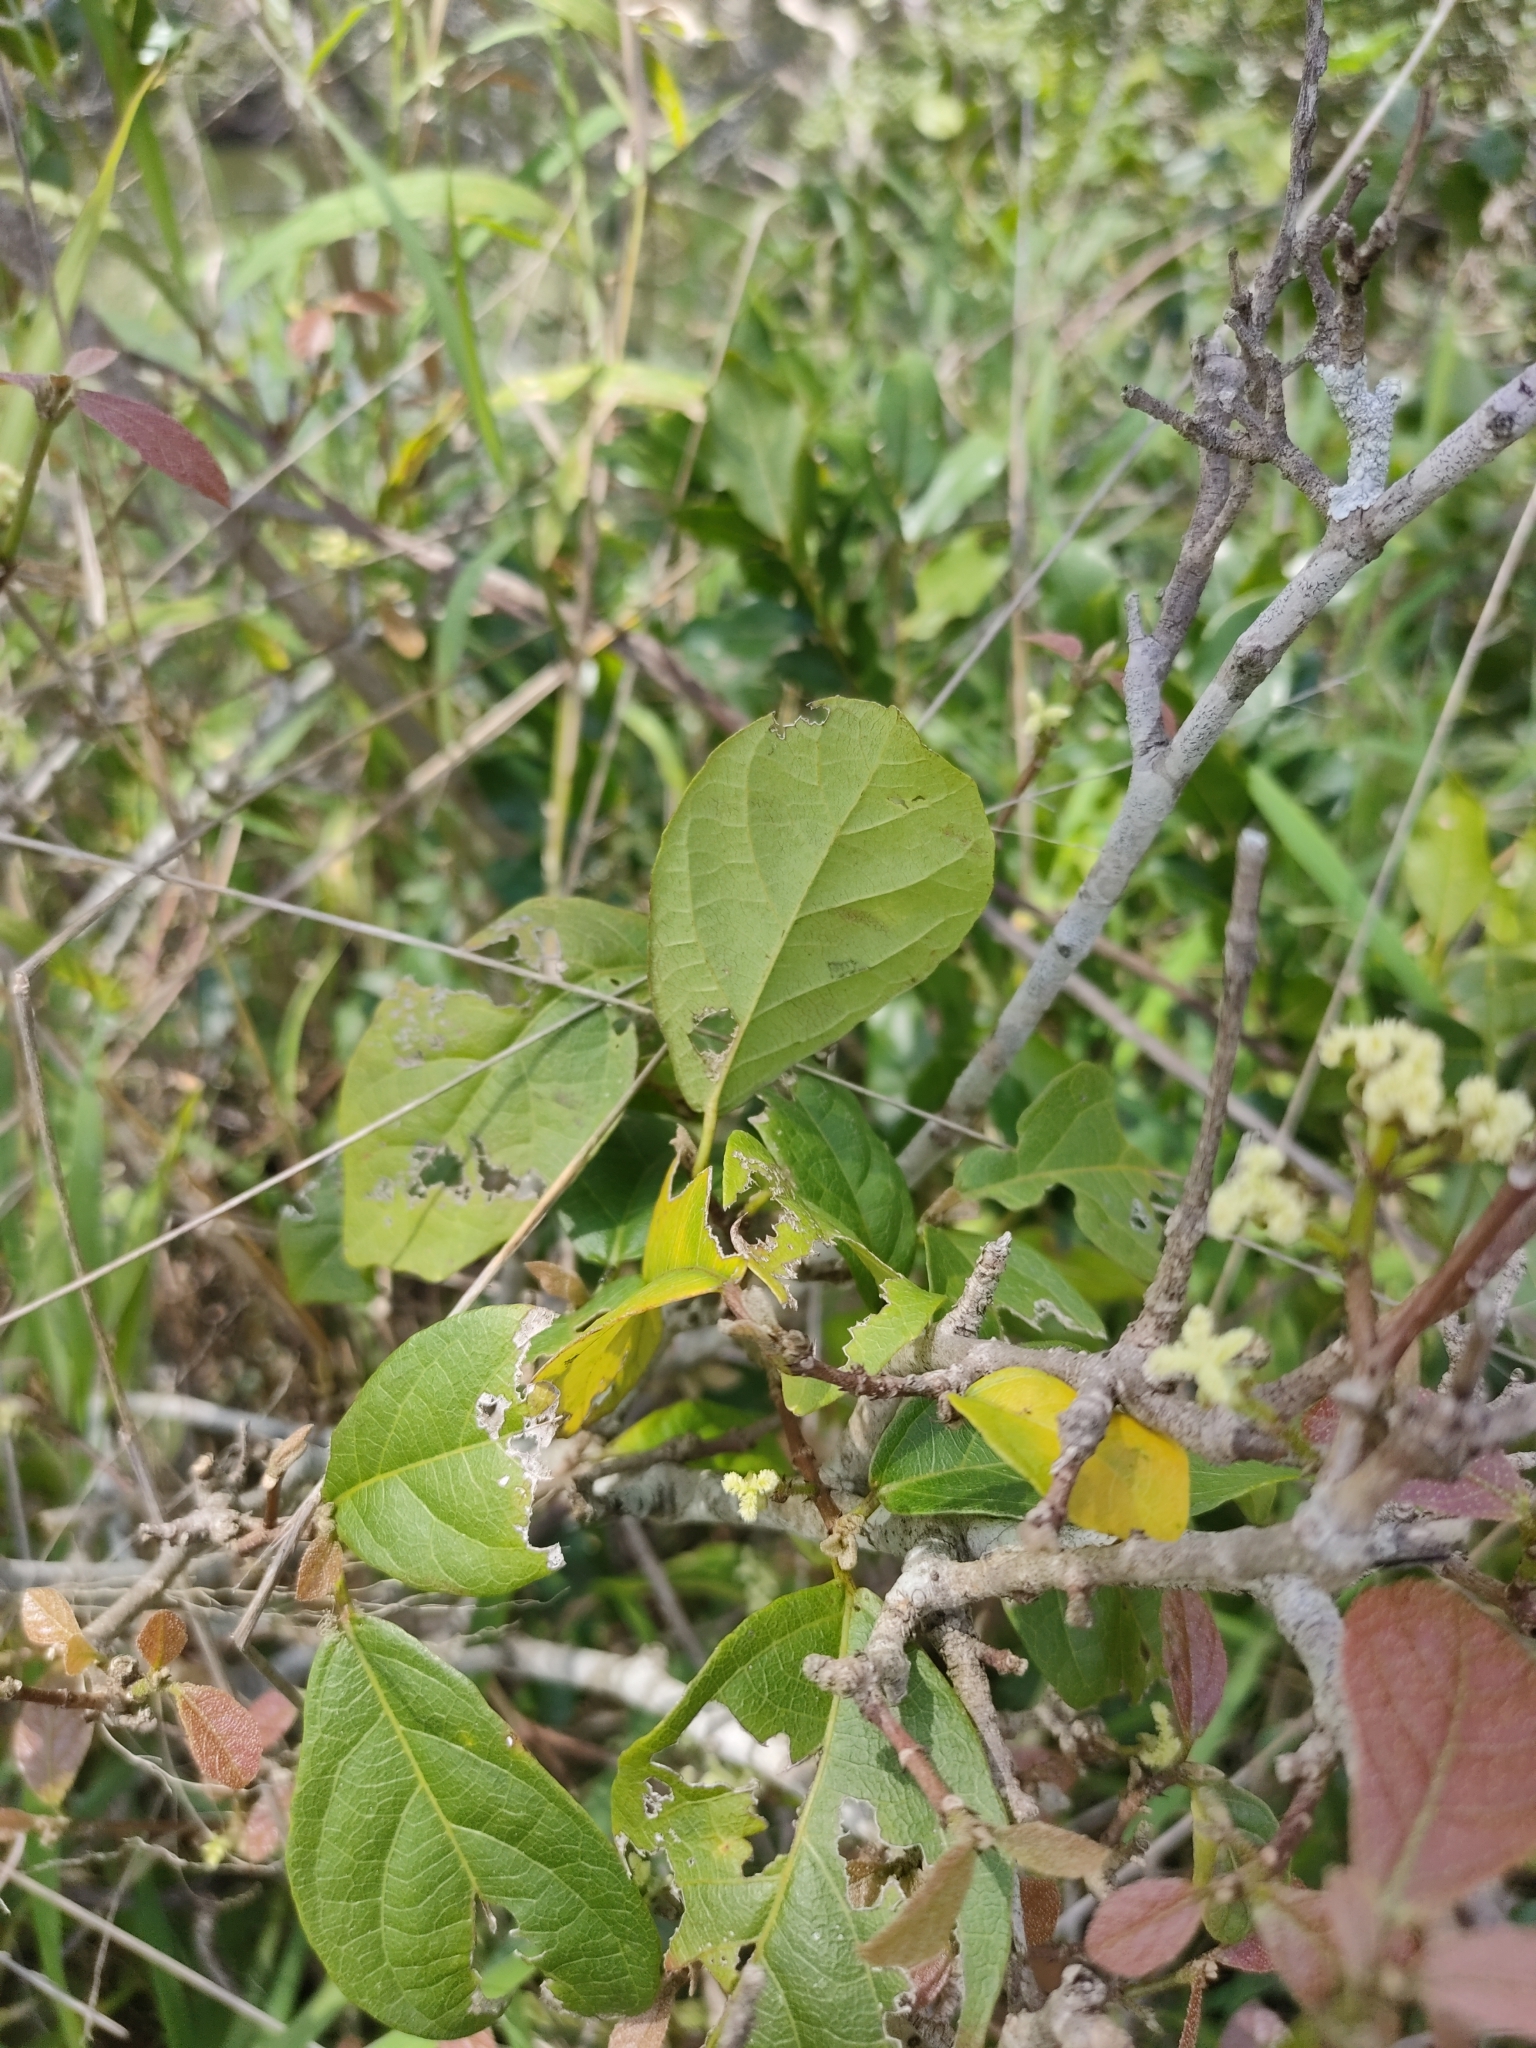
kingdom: Plantae
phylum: Tracheophyta
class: Magnoliopsida
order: Malpighiales
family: Euphorbiaceae
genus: Mallotus
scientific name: Mallotus claoxyloides
